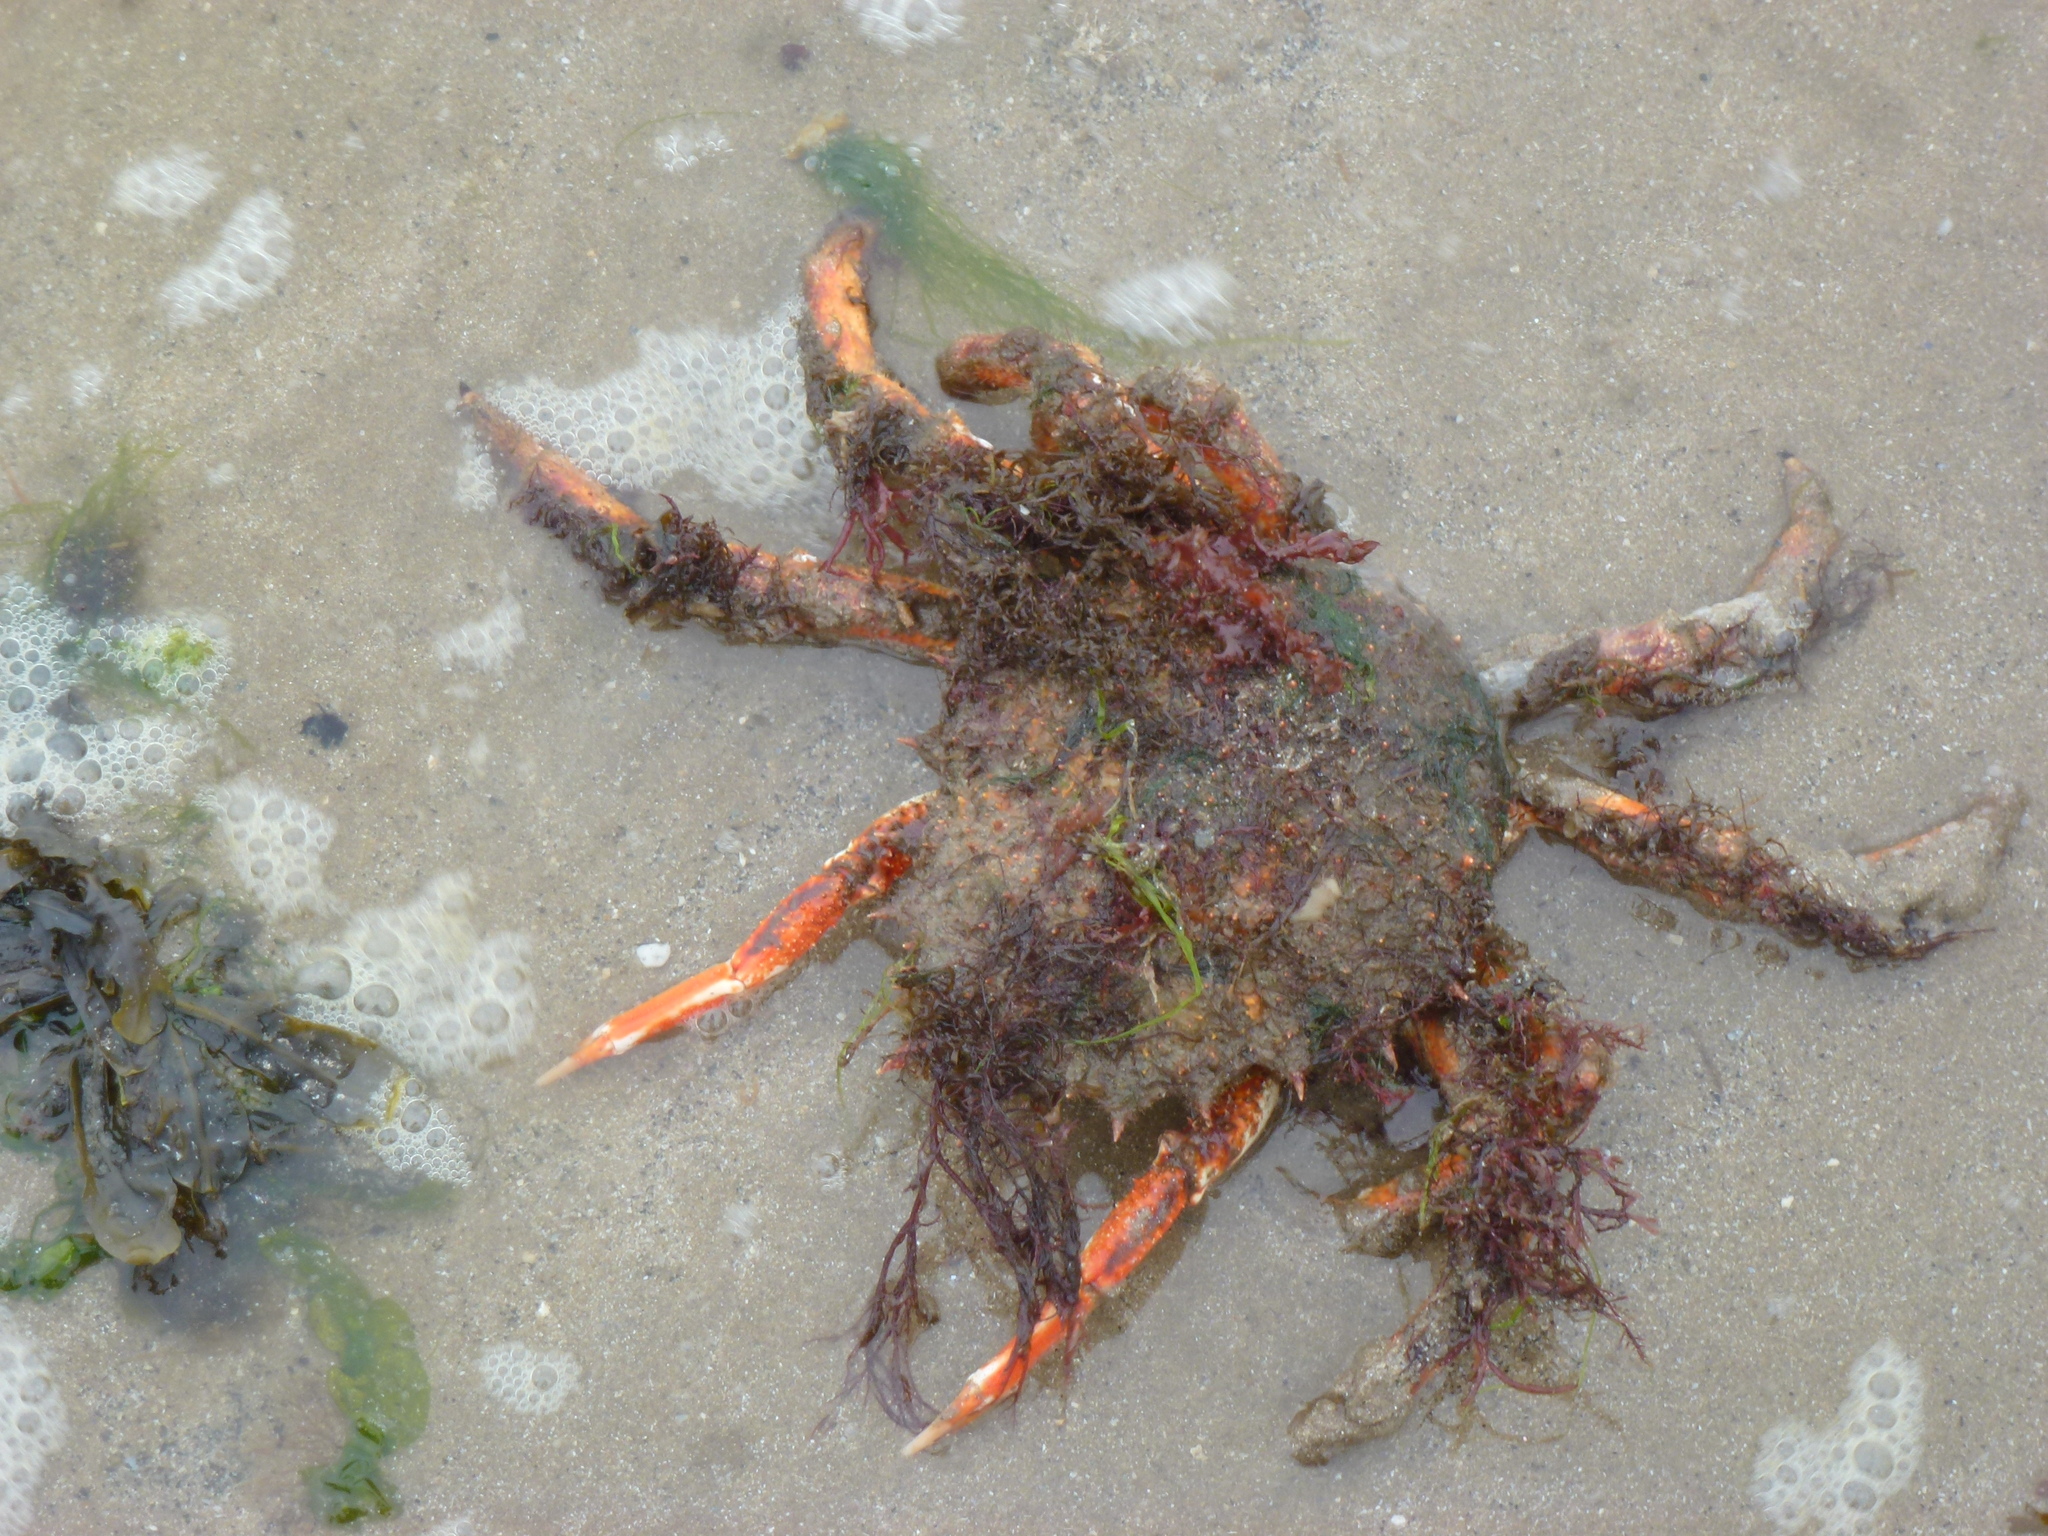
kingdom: Animalia
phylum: Arthropoda
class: Malacostraca
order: Decapoda
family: Majidae
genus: Maja
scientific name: Maja brachydactyla
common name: Common spider crab
